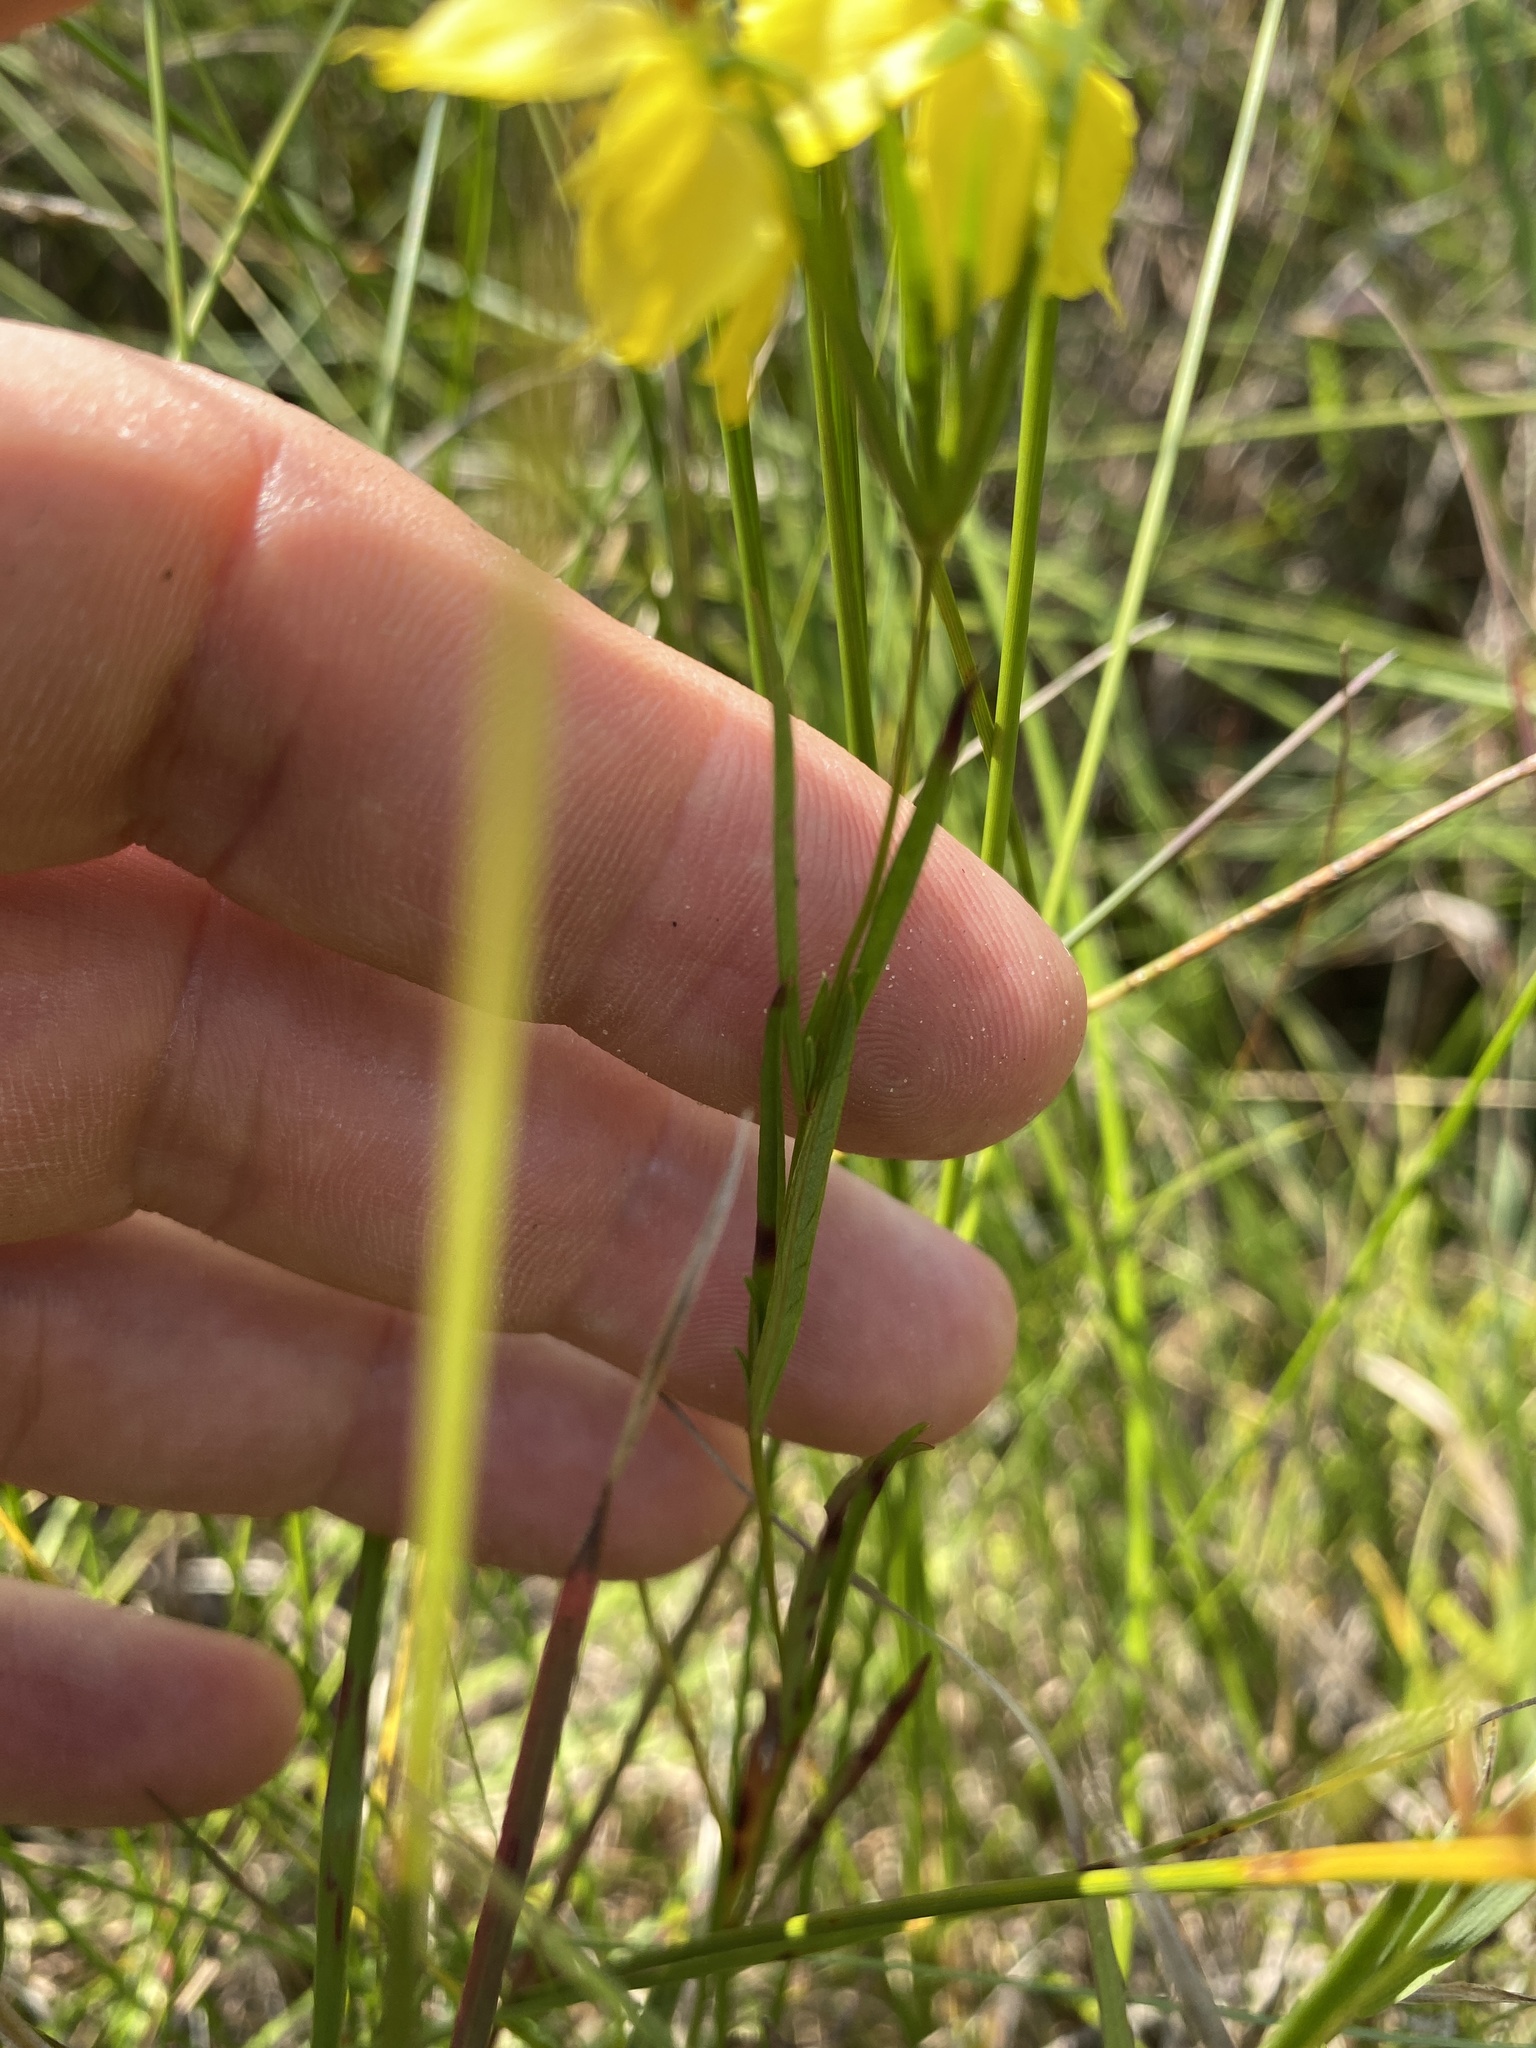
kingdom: Plantae
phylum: Tracheophyta
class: Magnoliopsida
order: Ericales
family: Primulaceae
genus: Lysimachia
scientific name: Lysimachia quadriflora
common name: Four-flowered loosestrife
